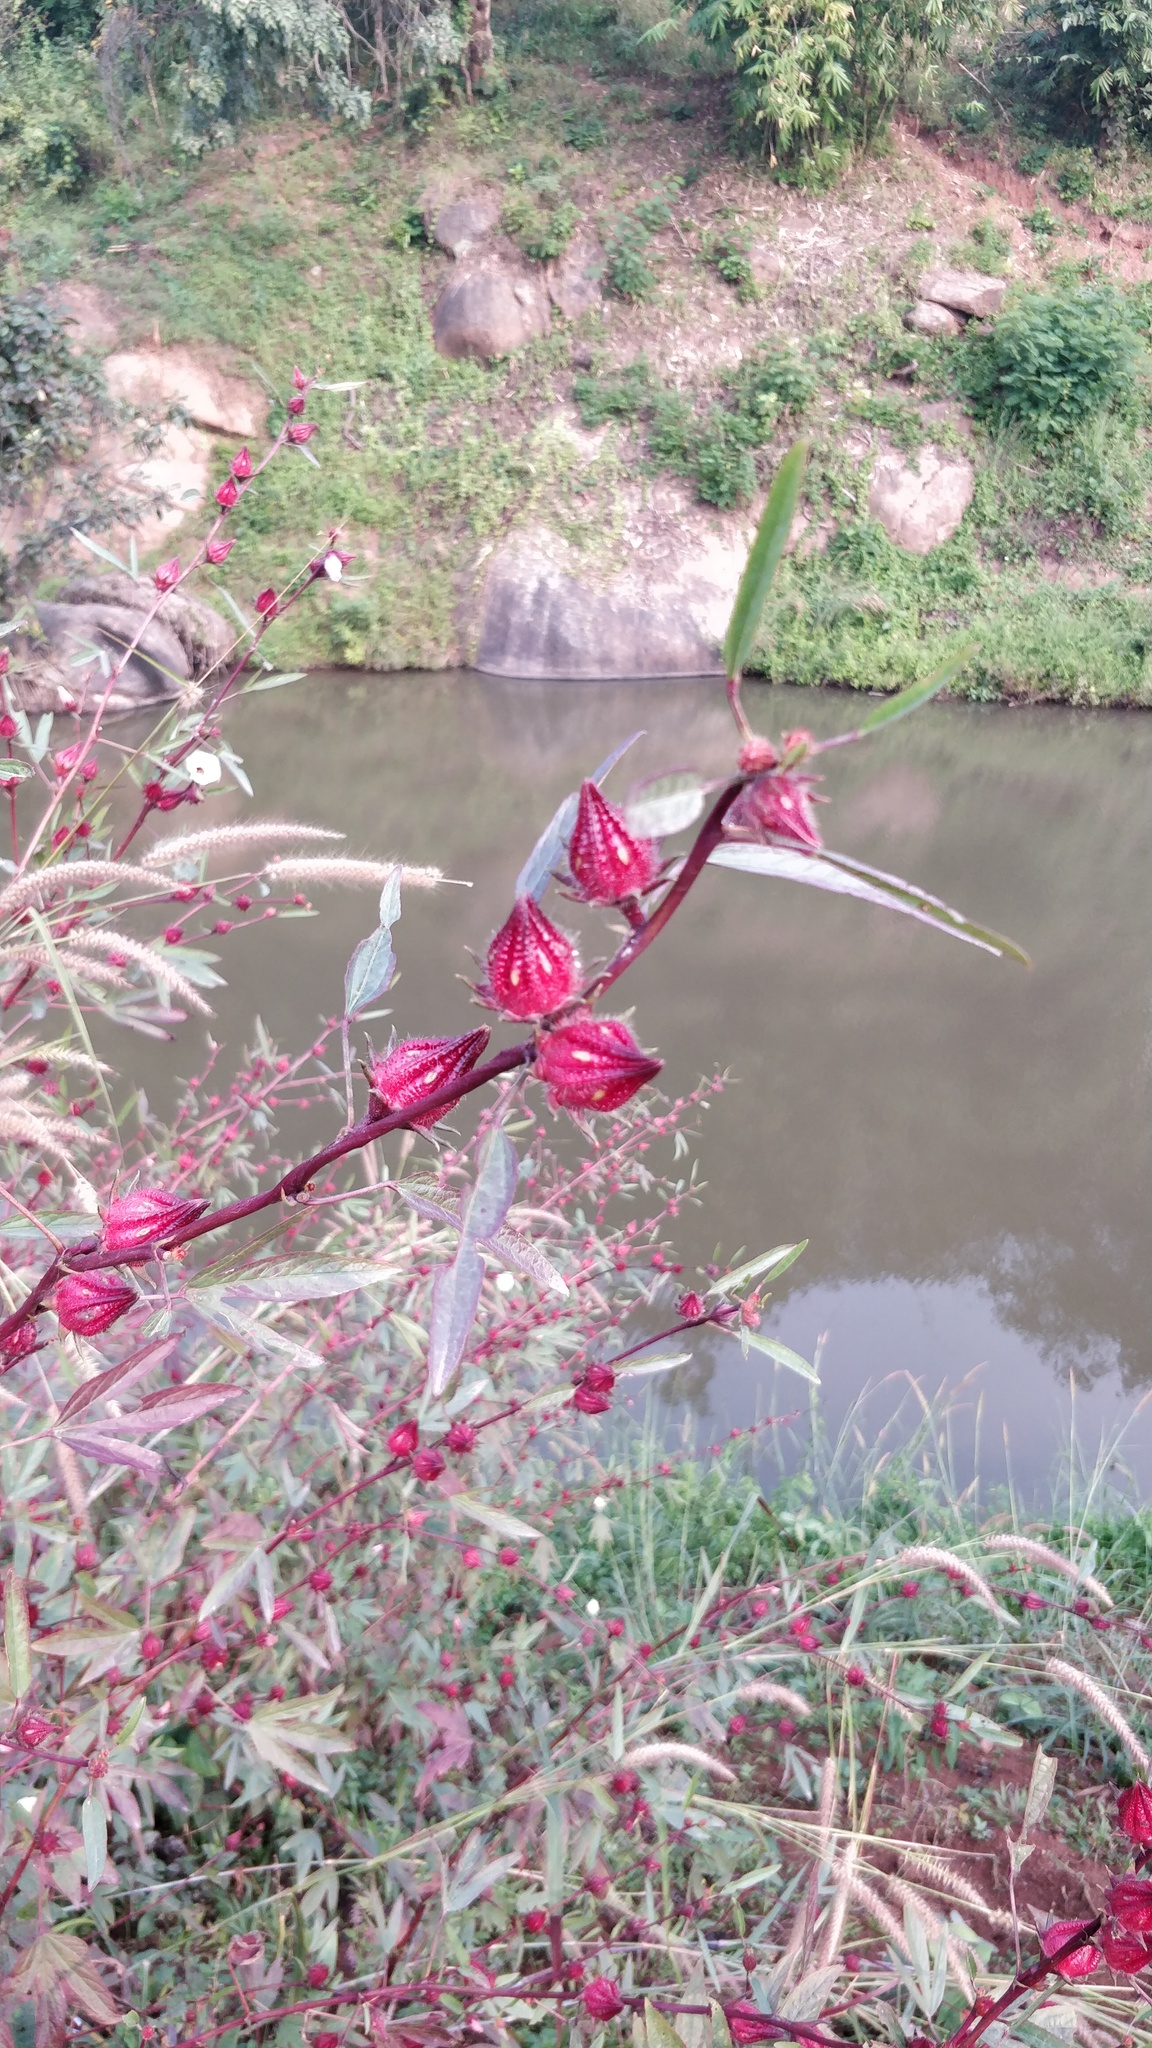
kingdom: Plantae
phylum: Tracheophyta
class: Magnoliopsida
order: Malvales
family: Malvaceae
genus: Hibiscus
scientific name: Hibiscus sabdariffa
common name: Roselle
